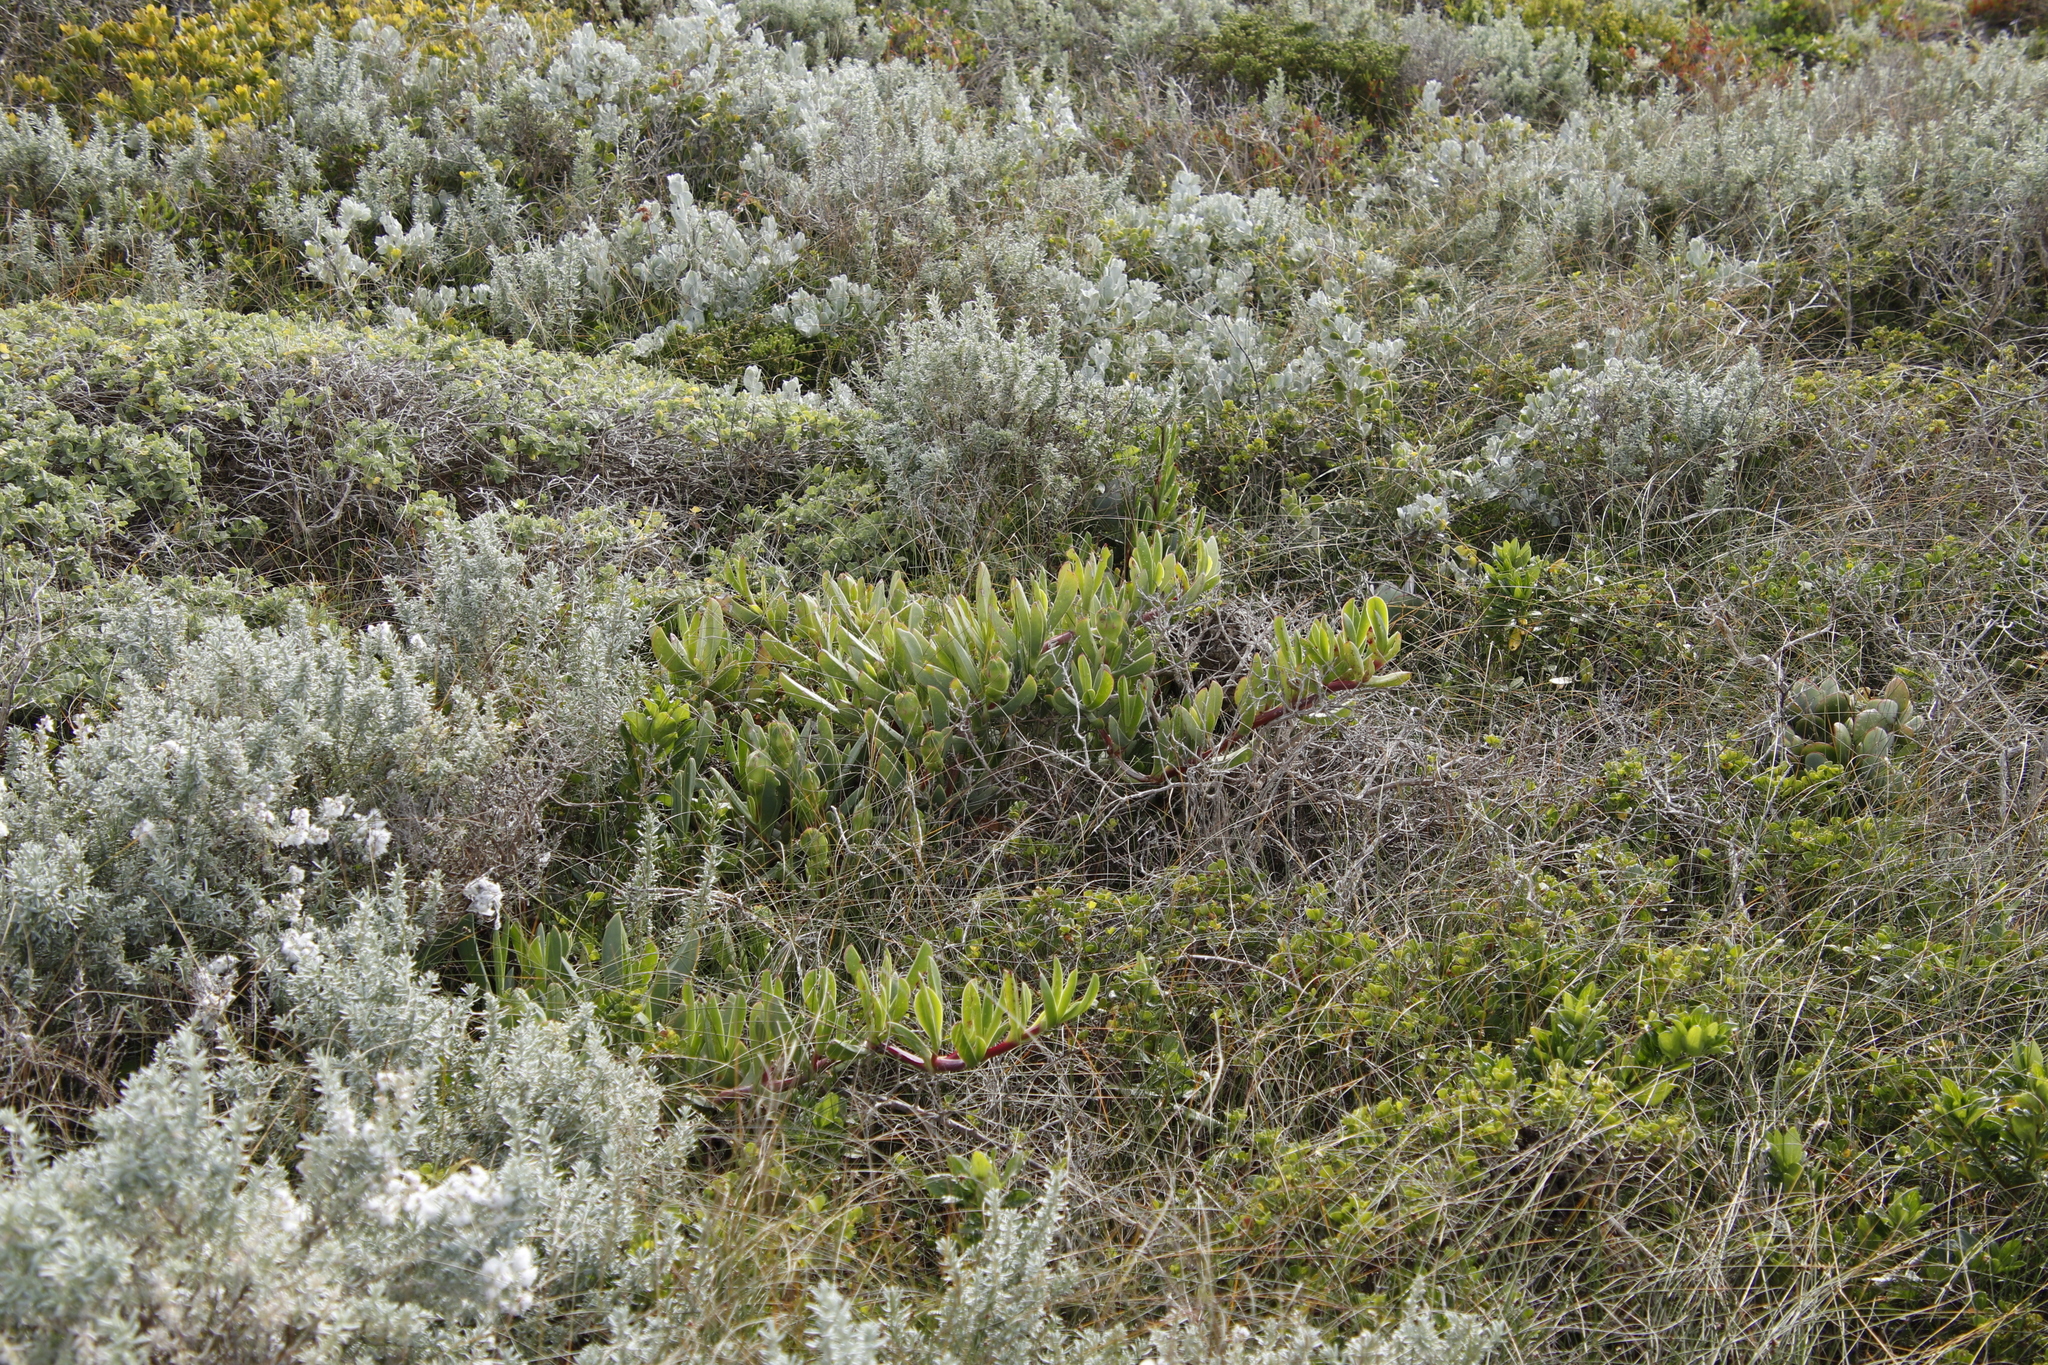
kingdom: Plantae
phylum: Tracheophyta
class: Magnoliopsida
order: Caryophyllales
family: Aizoaceae
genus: Carpobrotus
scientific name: Carpobrotus acinaciformis
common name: Sally-my-handsome
